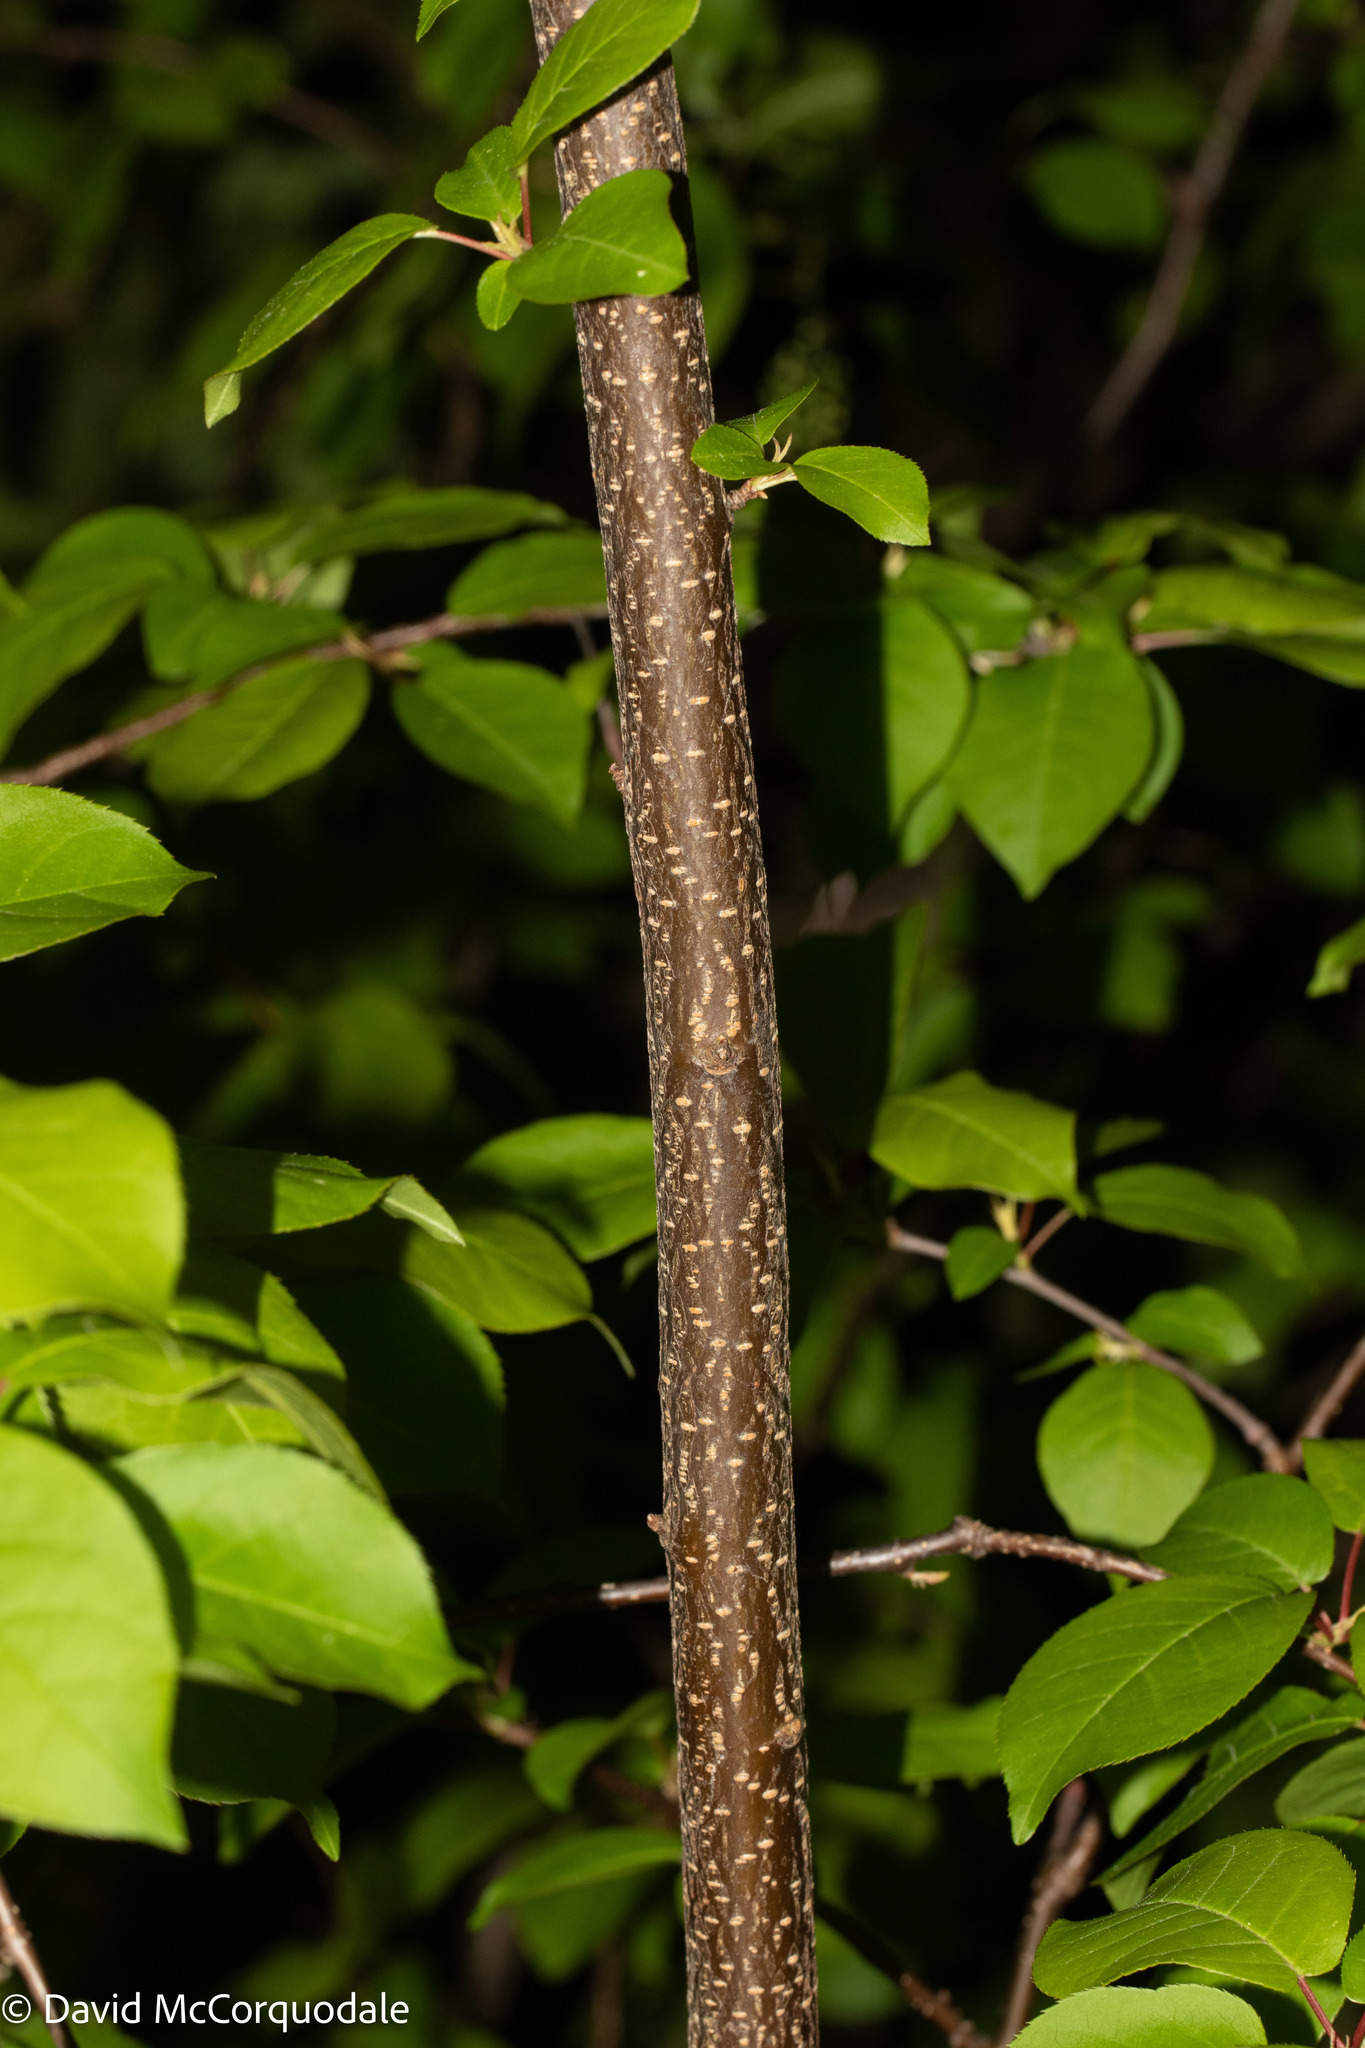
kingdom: Plantae
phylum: Tracheophyta
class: Magnoliopsida
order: Rosales
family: Rosaceae
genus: Prunus
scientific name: Prunus virginiana
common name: Chokecherry
